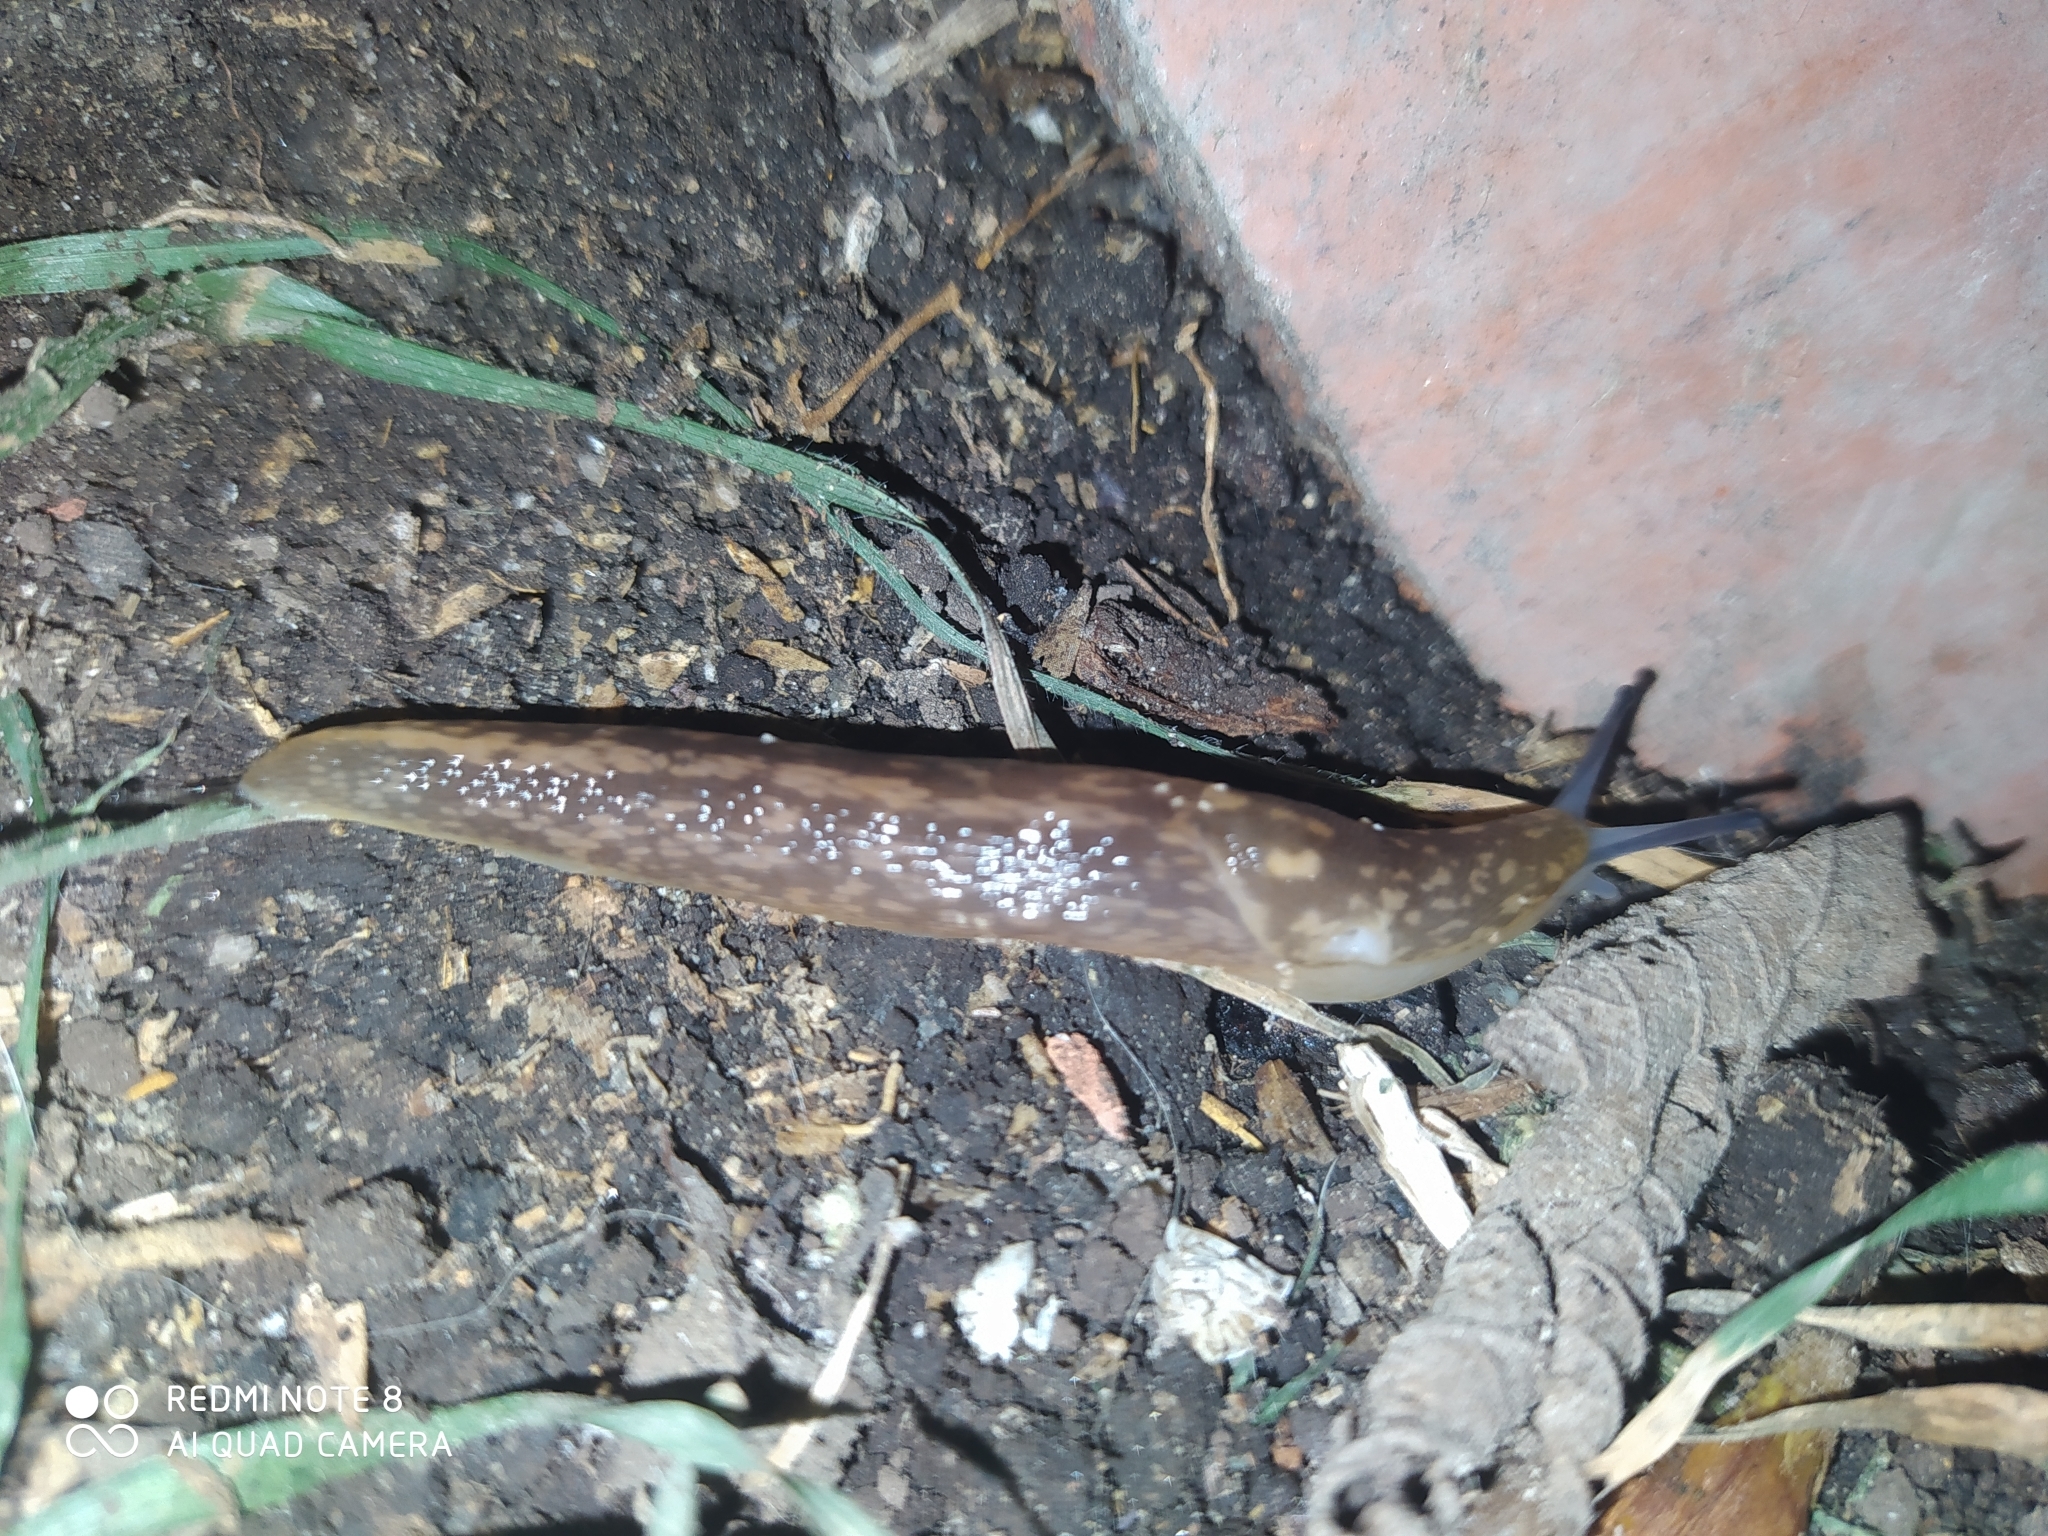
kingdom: Animalia
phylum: Mollusca
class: Gastropoda
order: Stylommatophora
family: Limacidae
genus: Limacus
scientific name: Limacus flavus
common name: Yellow gardenslug
